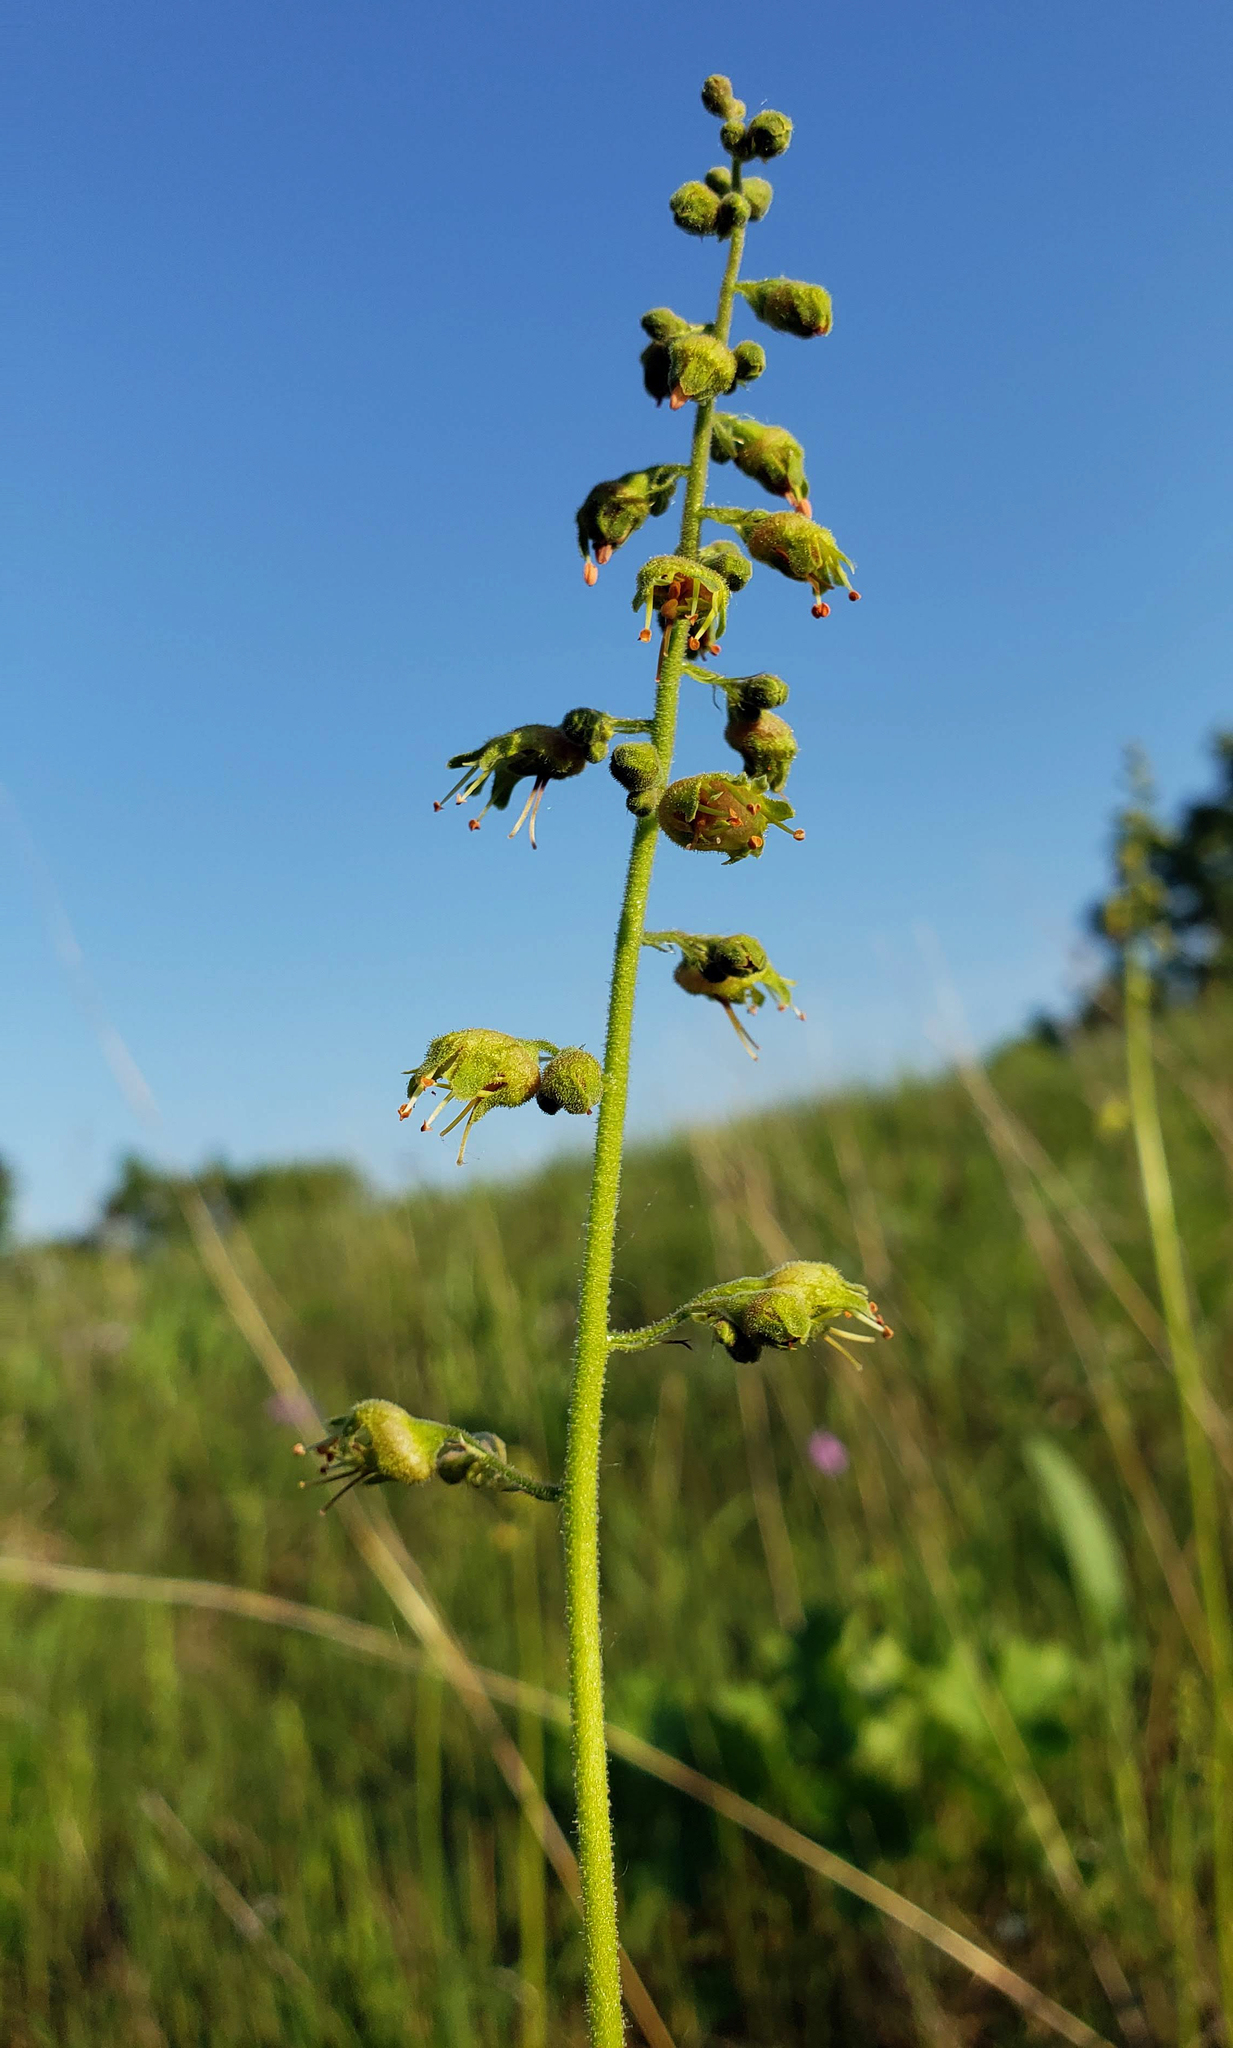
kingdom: Plantae
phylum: Tracheophyta
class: Magnoliopsida
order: Saxifragales
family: Saxifragaceae
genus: Heuchera
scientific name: Heuchera richardsonii
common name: Richardson's alumroot
